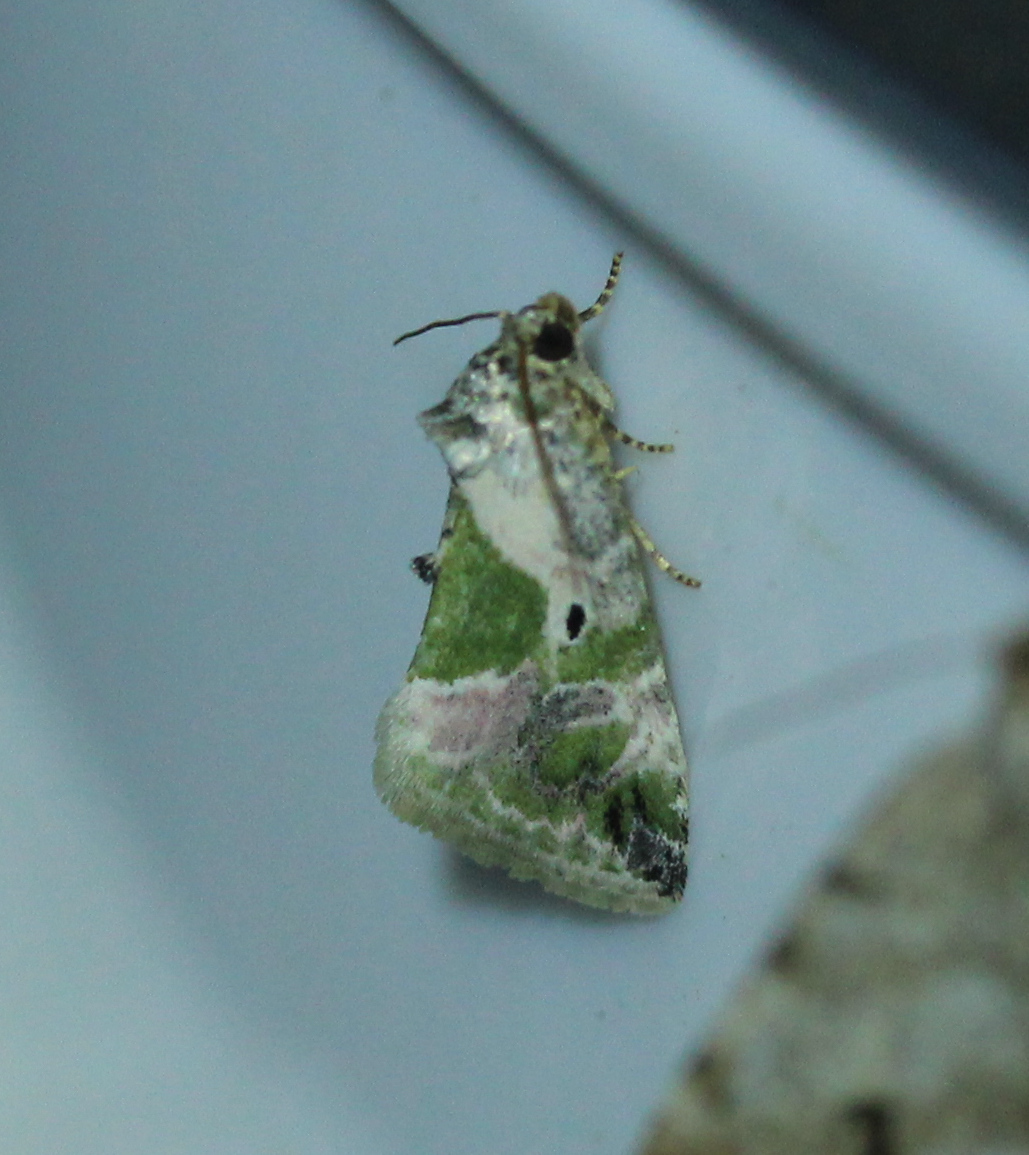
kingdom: Animalia
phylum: Arthropoda
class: Insecta
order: Lepidoptera
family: Noctuidae
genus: Maliattha
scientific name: Maliattha synochitis
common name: Black-dotted glyph
